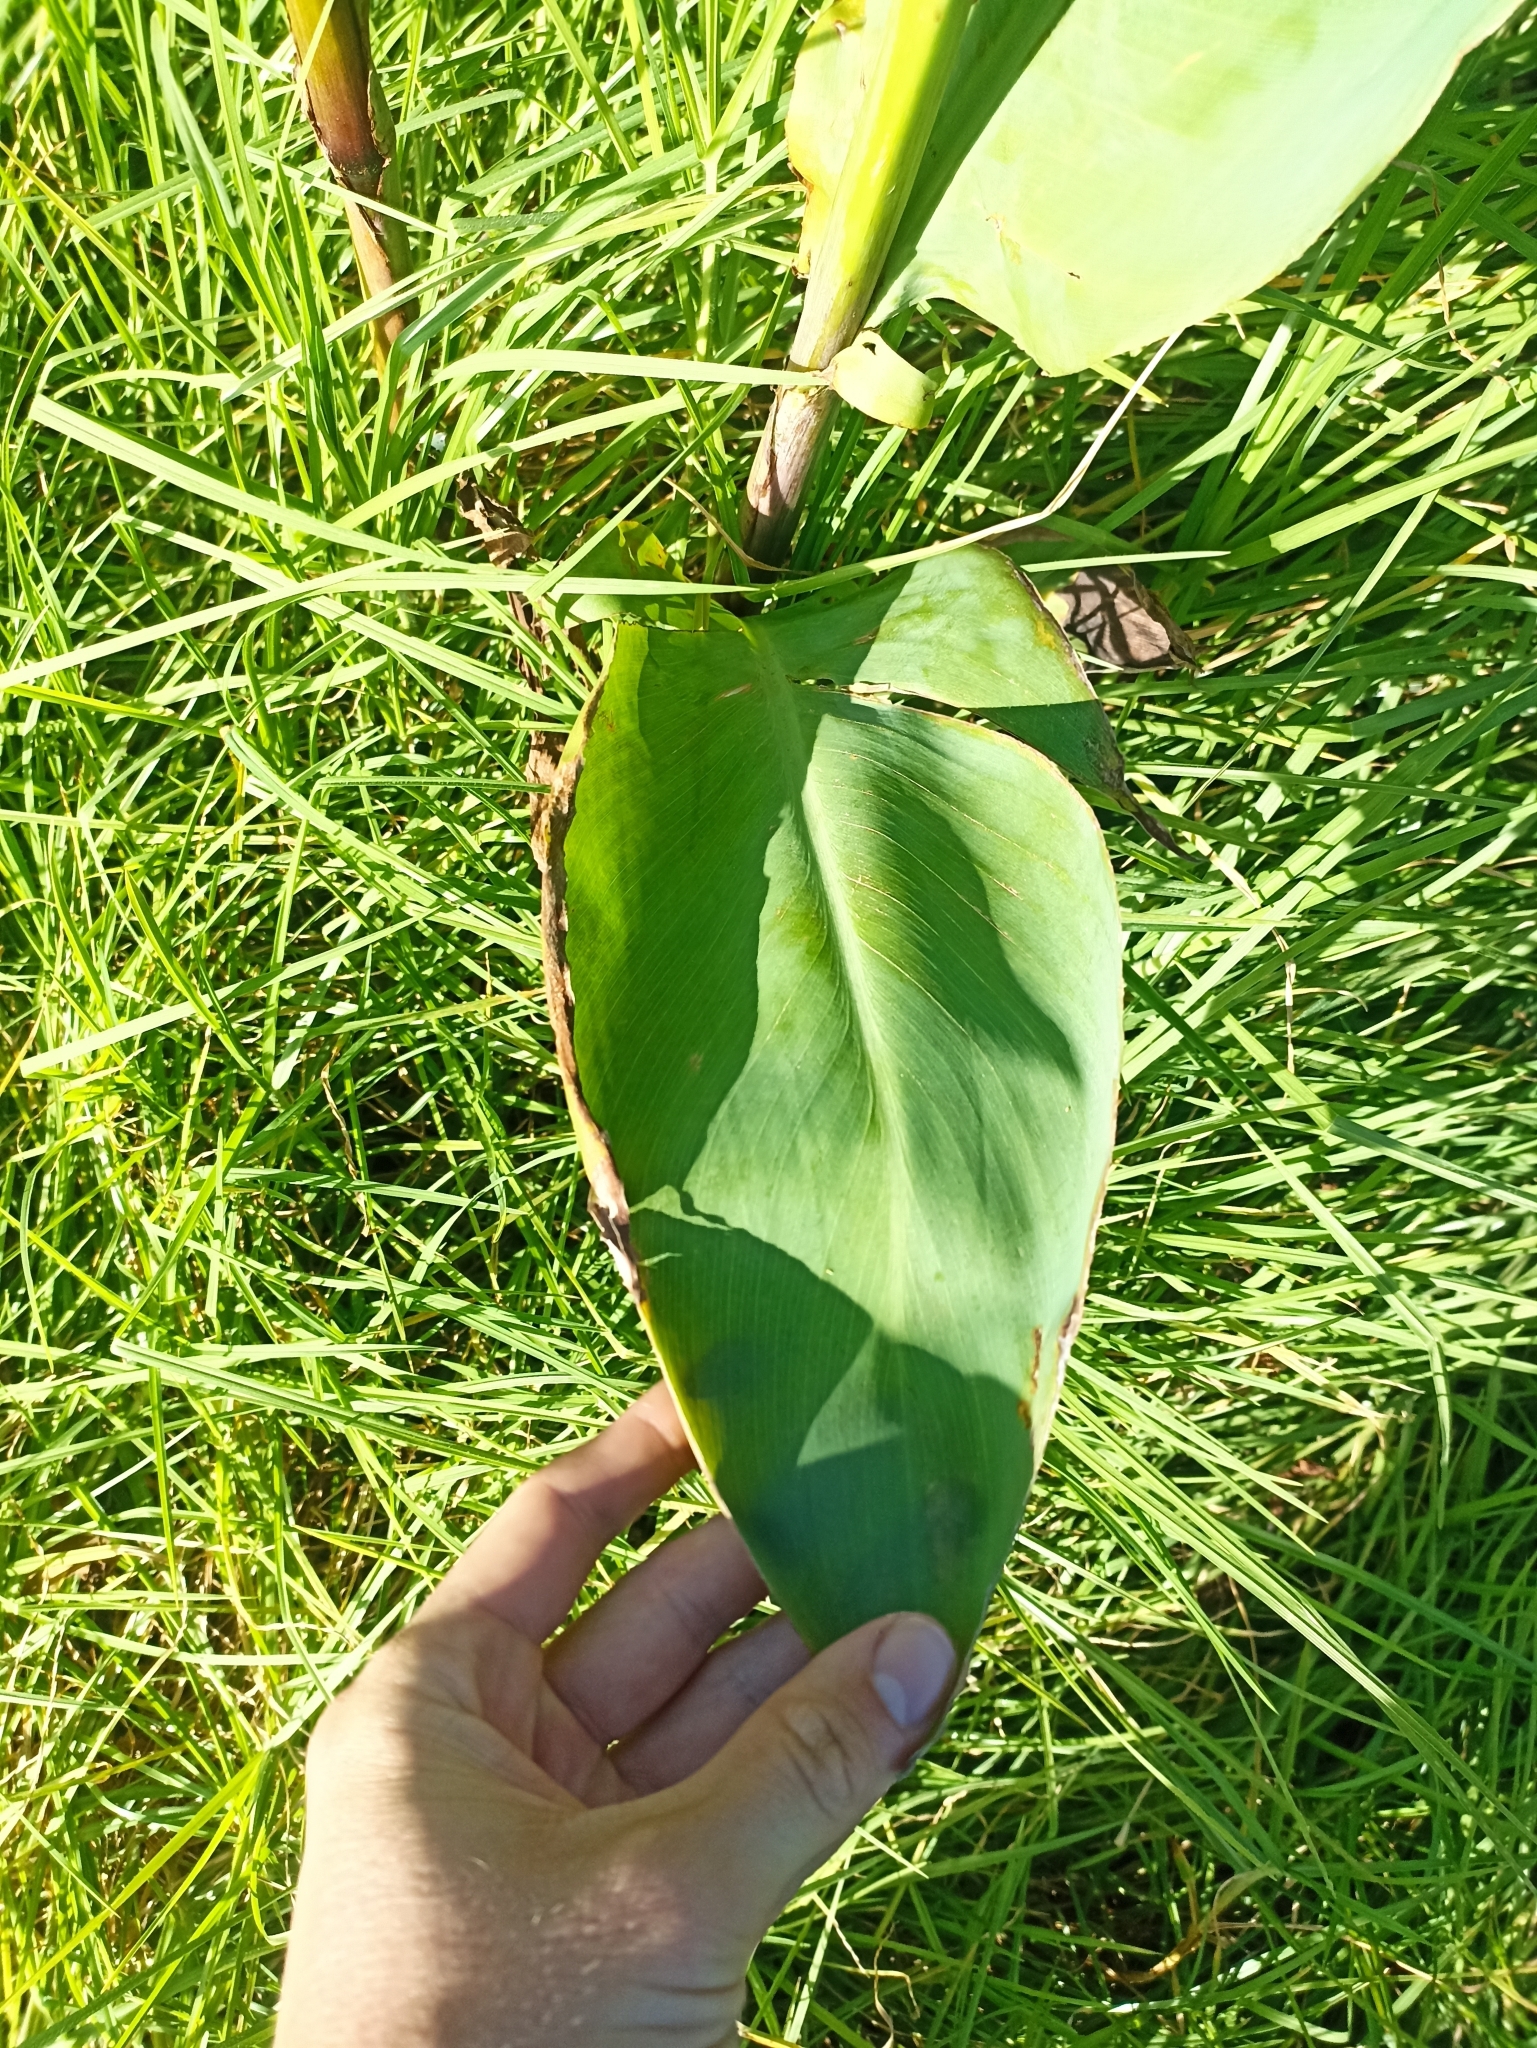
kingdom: Plantae
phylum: Tracheophyta
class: Liliopsida
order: Zingiberales
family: Cannaceae
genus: Canna
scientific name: Canna hybrida
